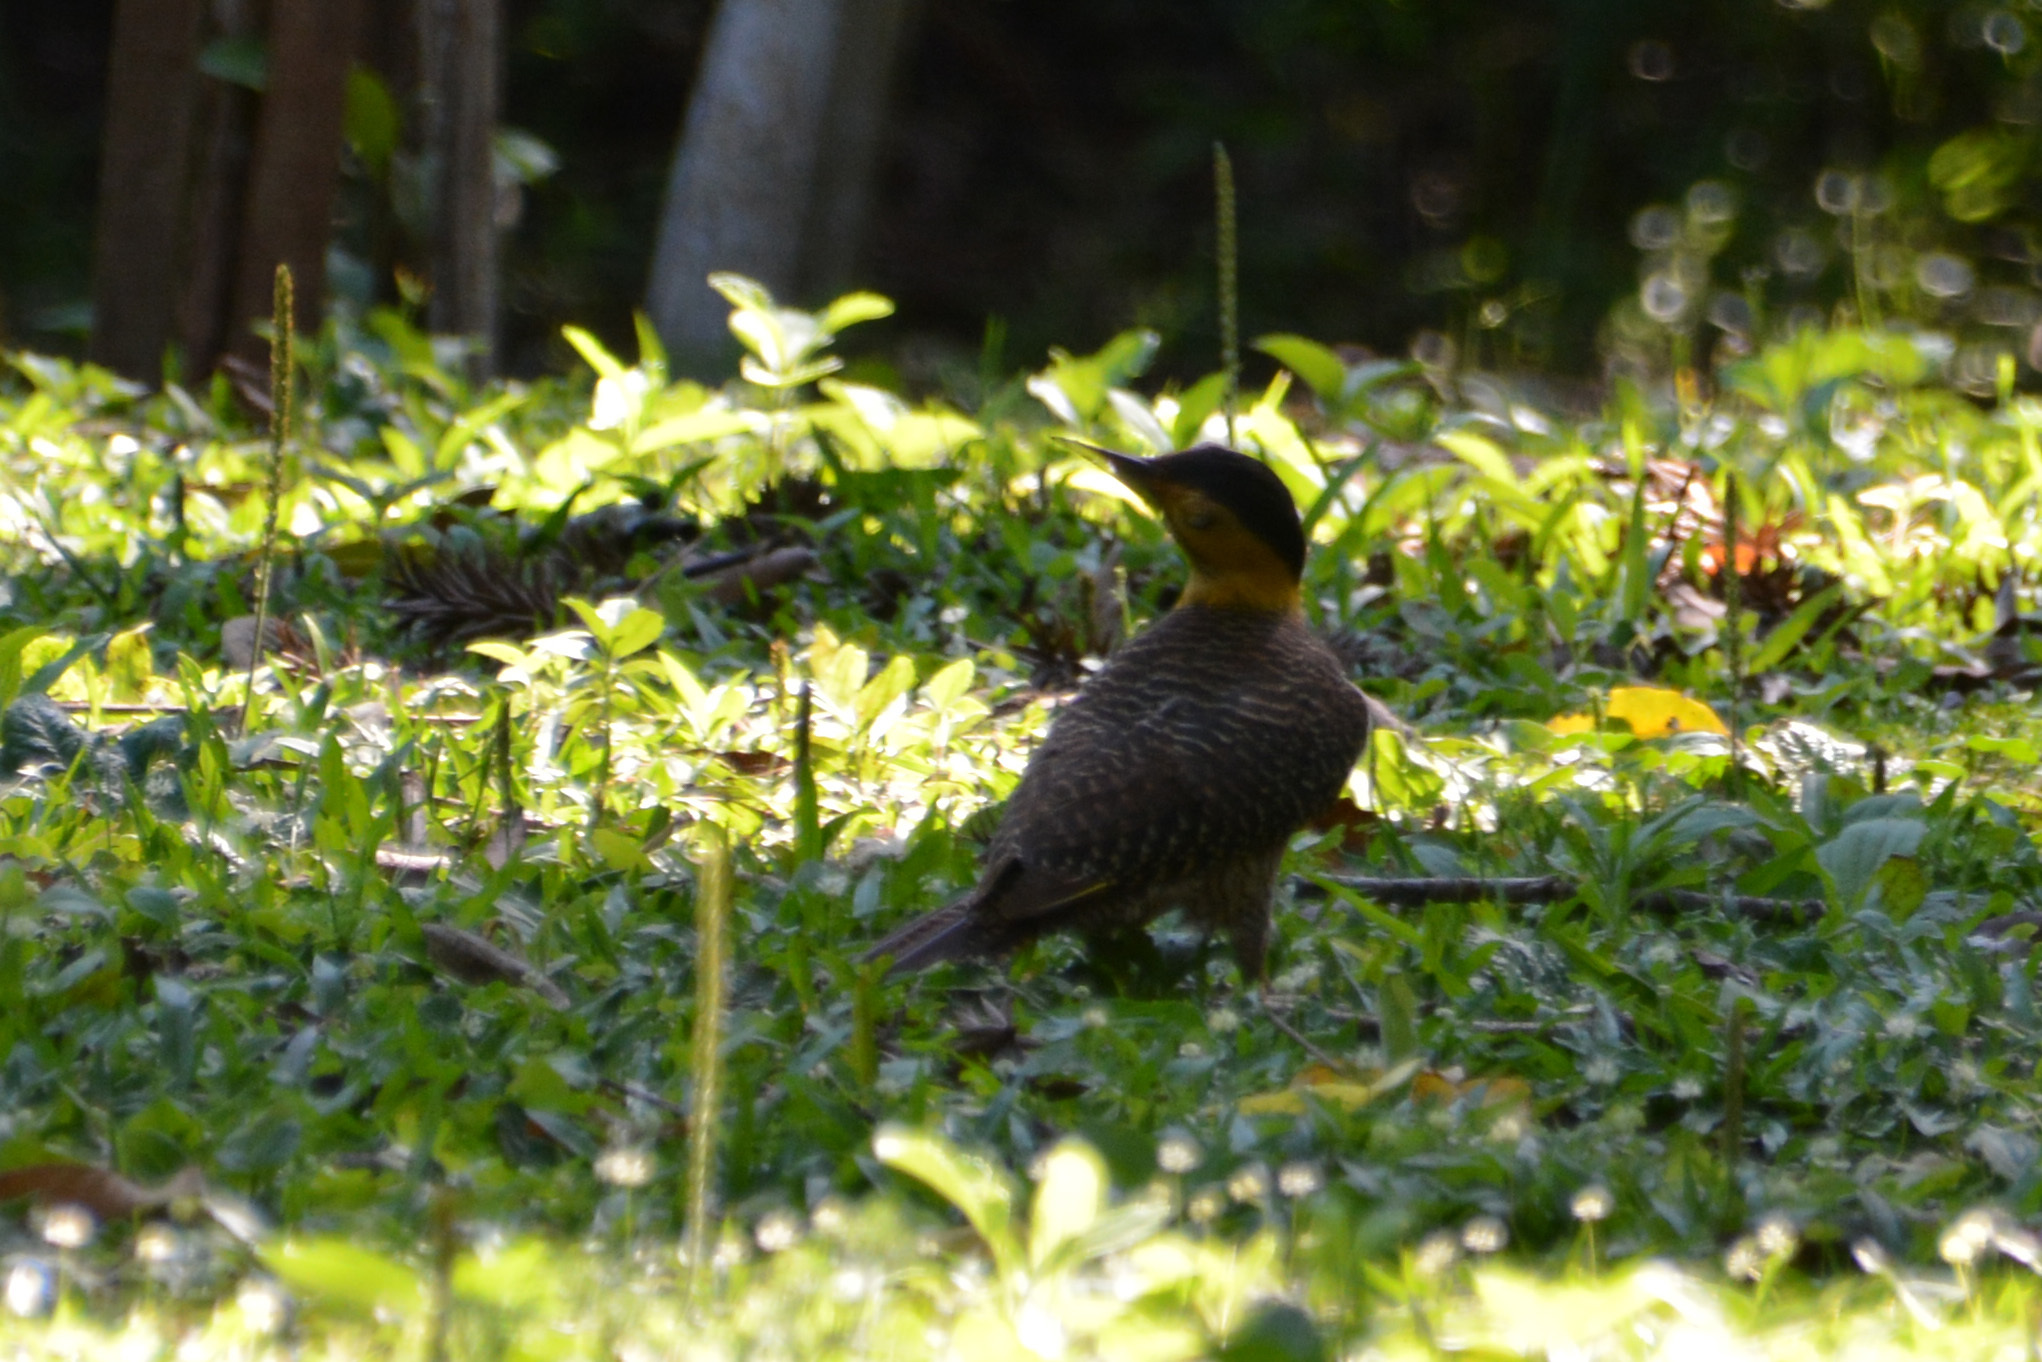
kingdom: Animalia
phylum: Chordata
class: Aves
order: Piciformes
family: Picidae
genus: Colaptes
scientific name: Colaptes campestris
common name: Campo flicker
